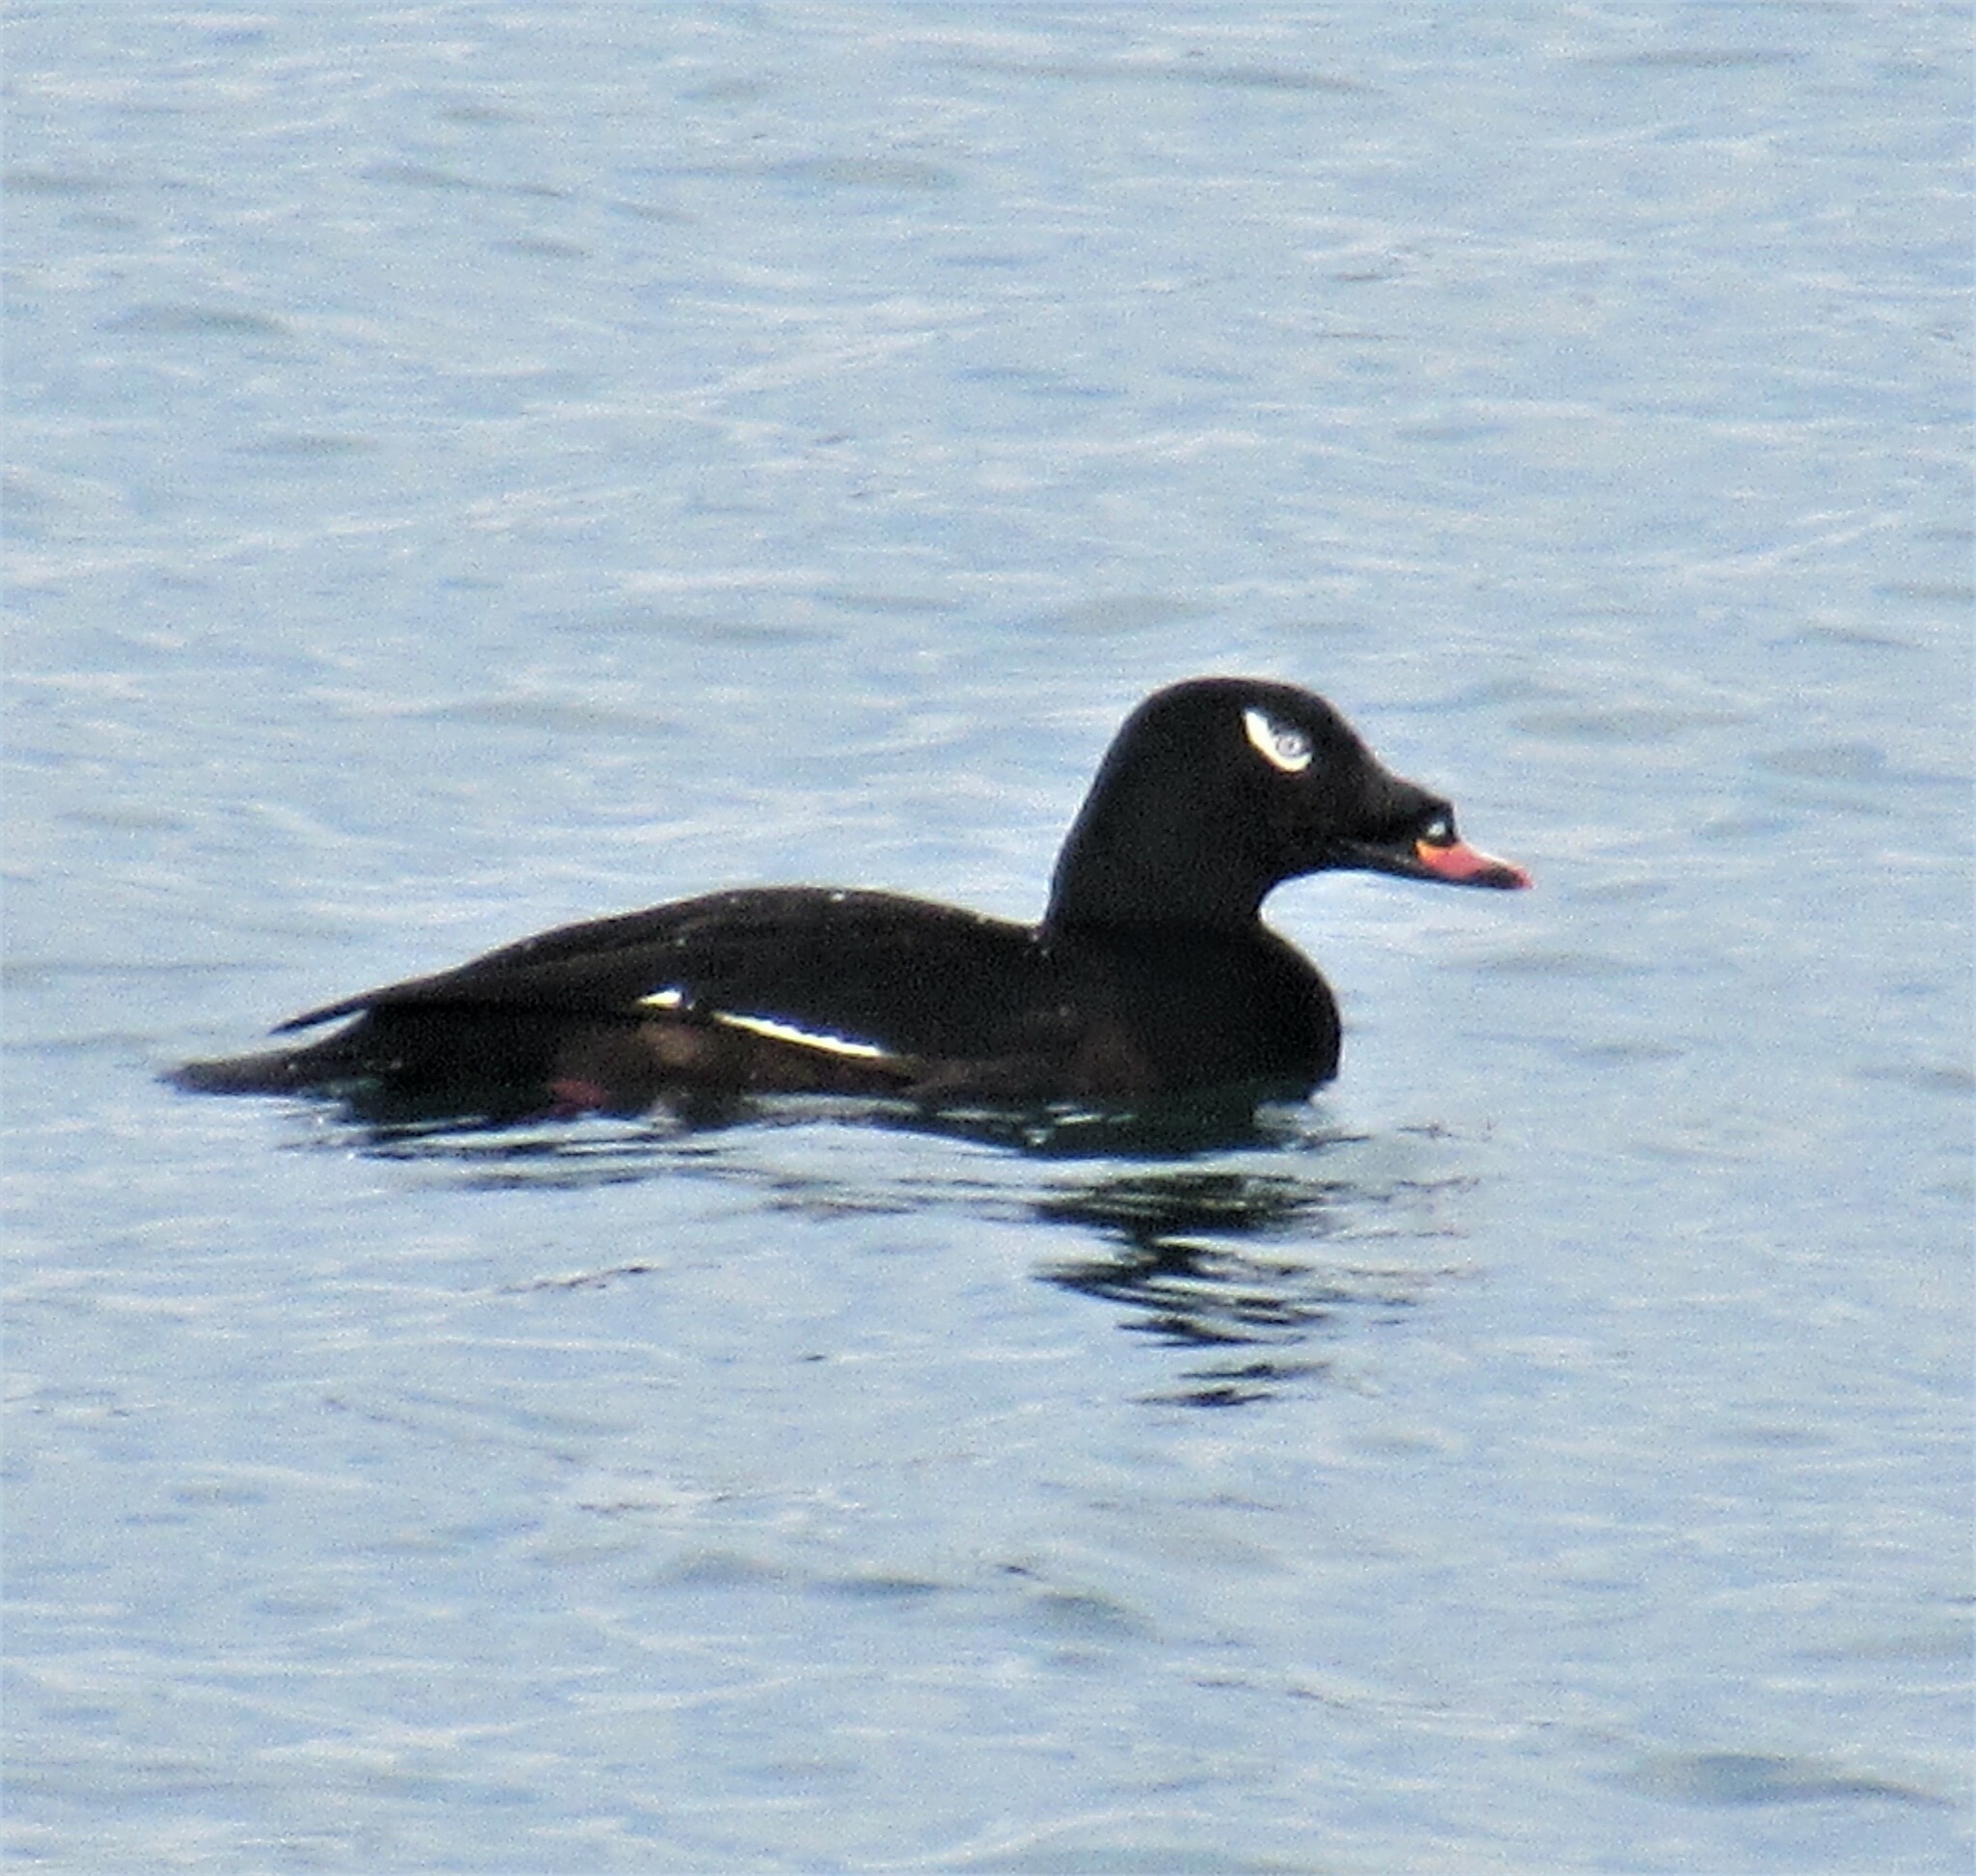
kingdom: Animalia
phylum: Chordata
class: Aves
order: Anseriformes
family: Anatidae
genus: Melanitta
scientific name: Melanitta deglandi
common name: White-winged scoter
